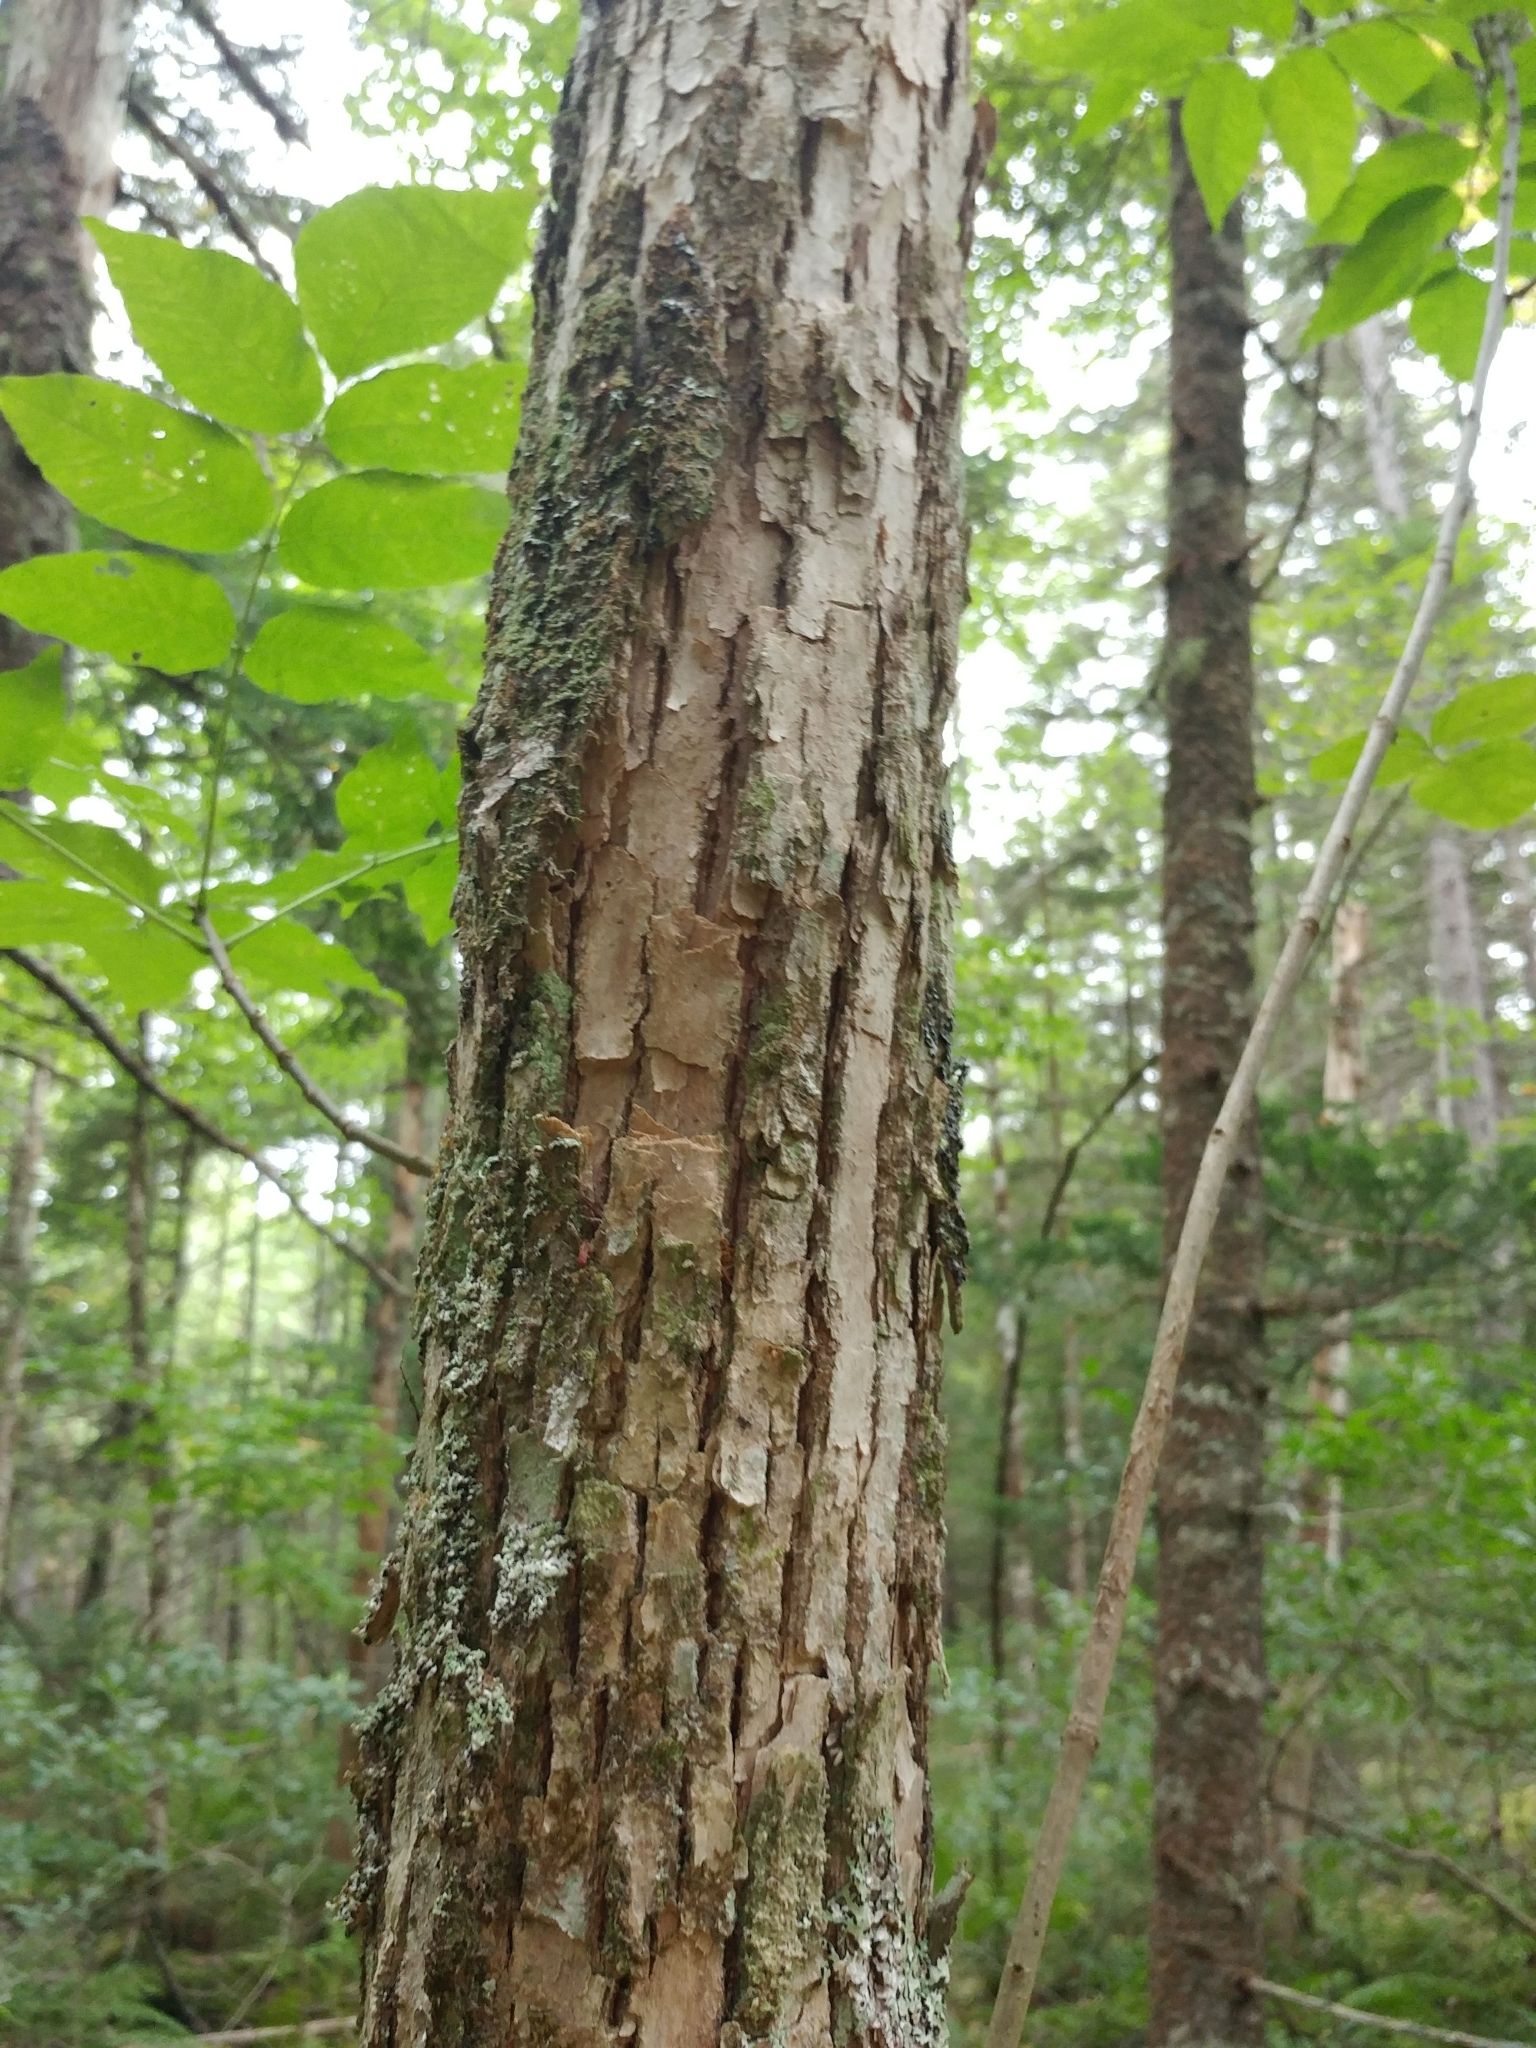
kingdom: Plantae
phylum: Tracheophyta
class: Magnoliopsida
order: Lamiales
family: Oleaceae
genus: Fraxinus
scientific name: Fraxinus americana
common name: White ash
